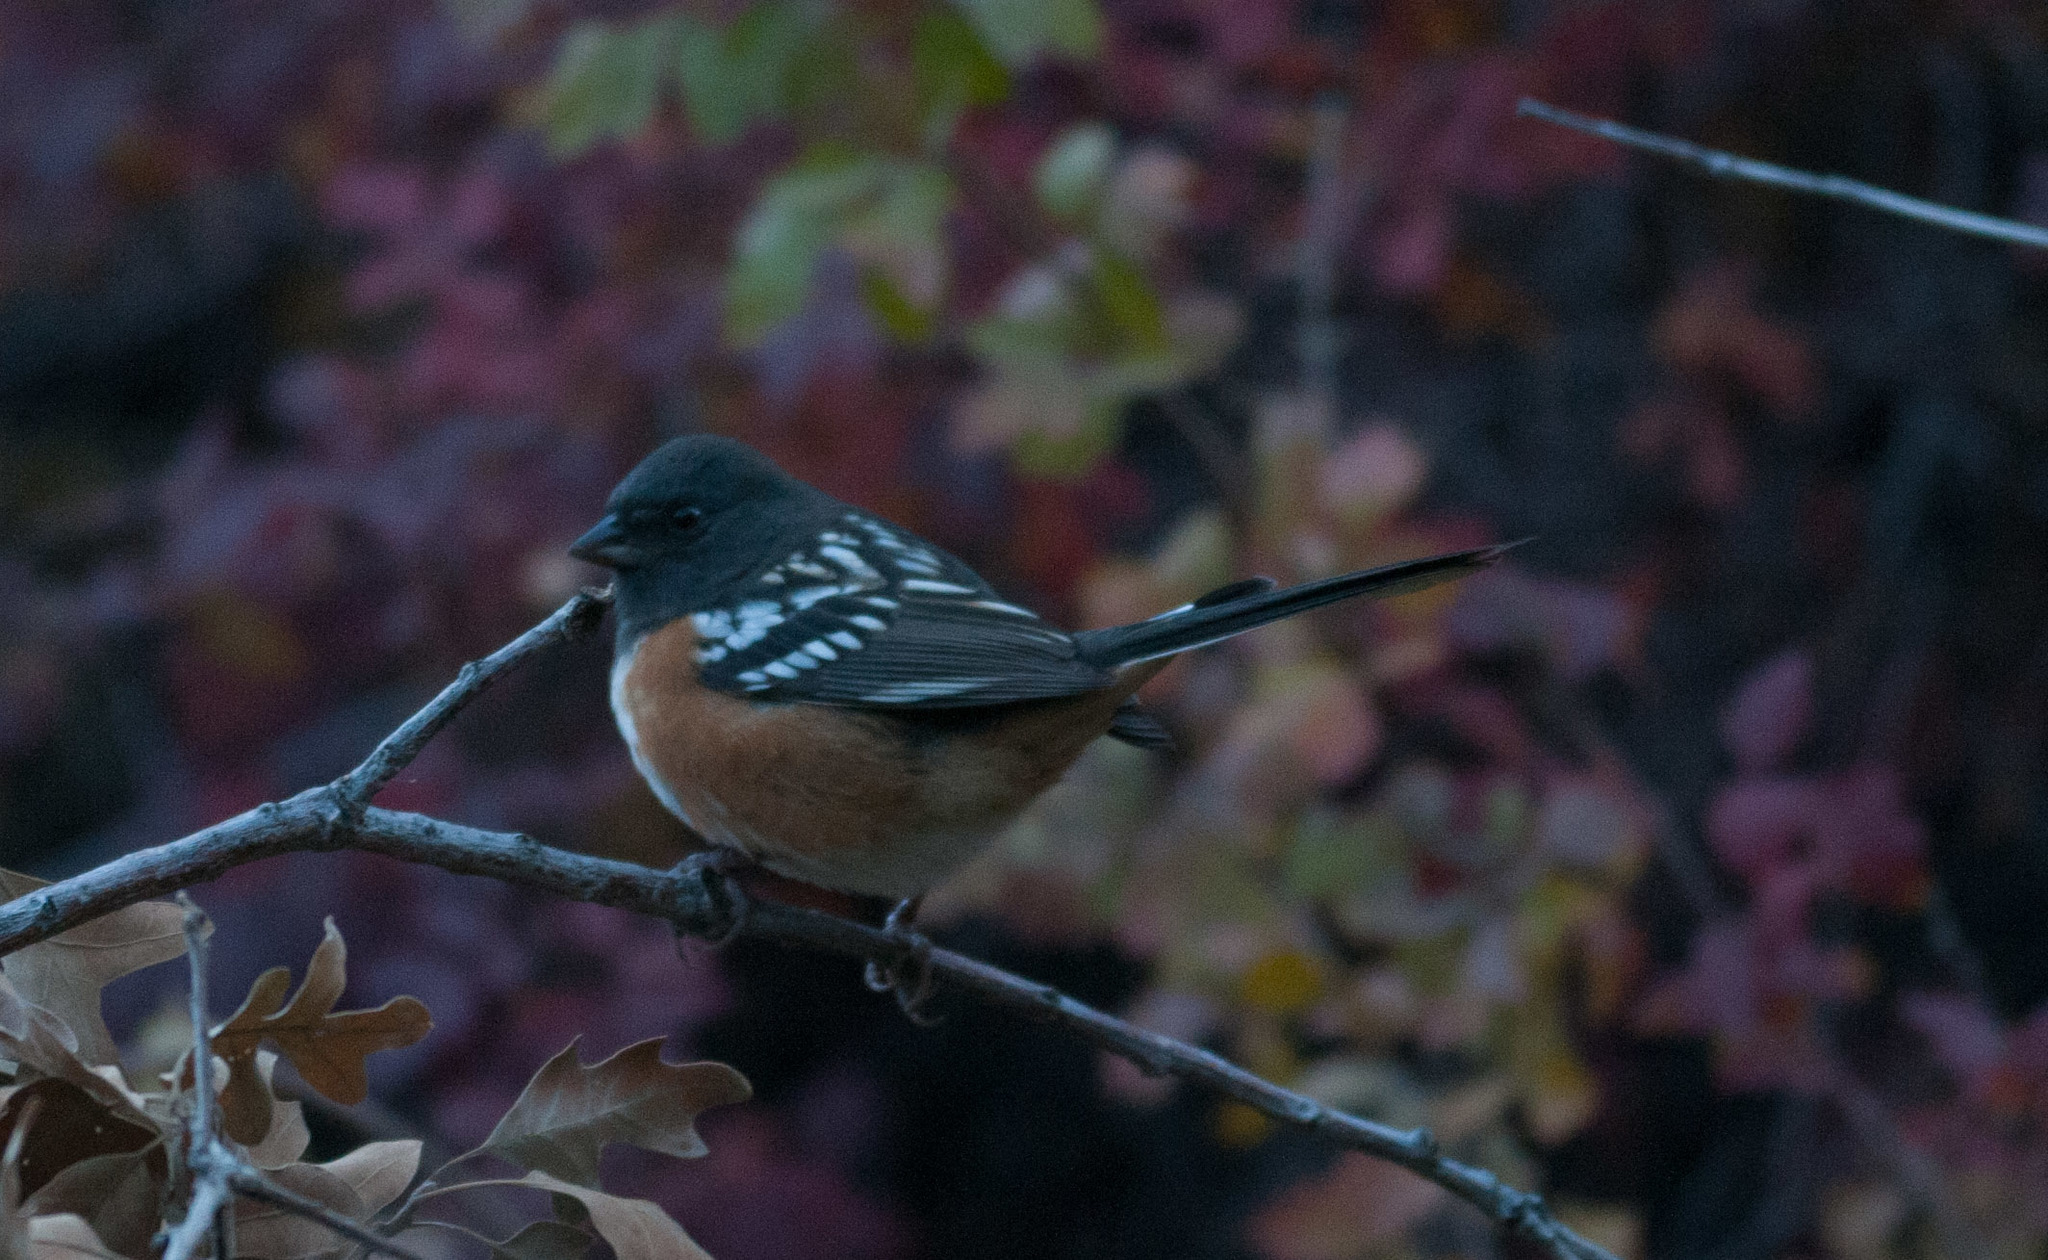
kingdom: Animalia
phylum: Chordata
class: Aves
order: Passeriformes
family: Passerellidae
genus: Pipilo
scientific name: Pipilo maculatus
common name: Spotted towhee
